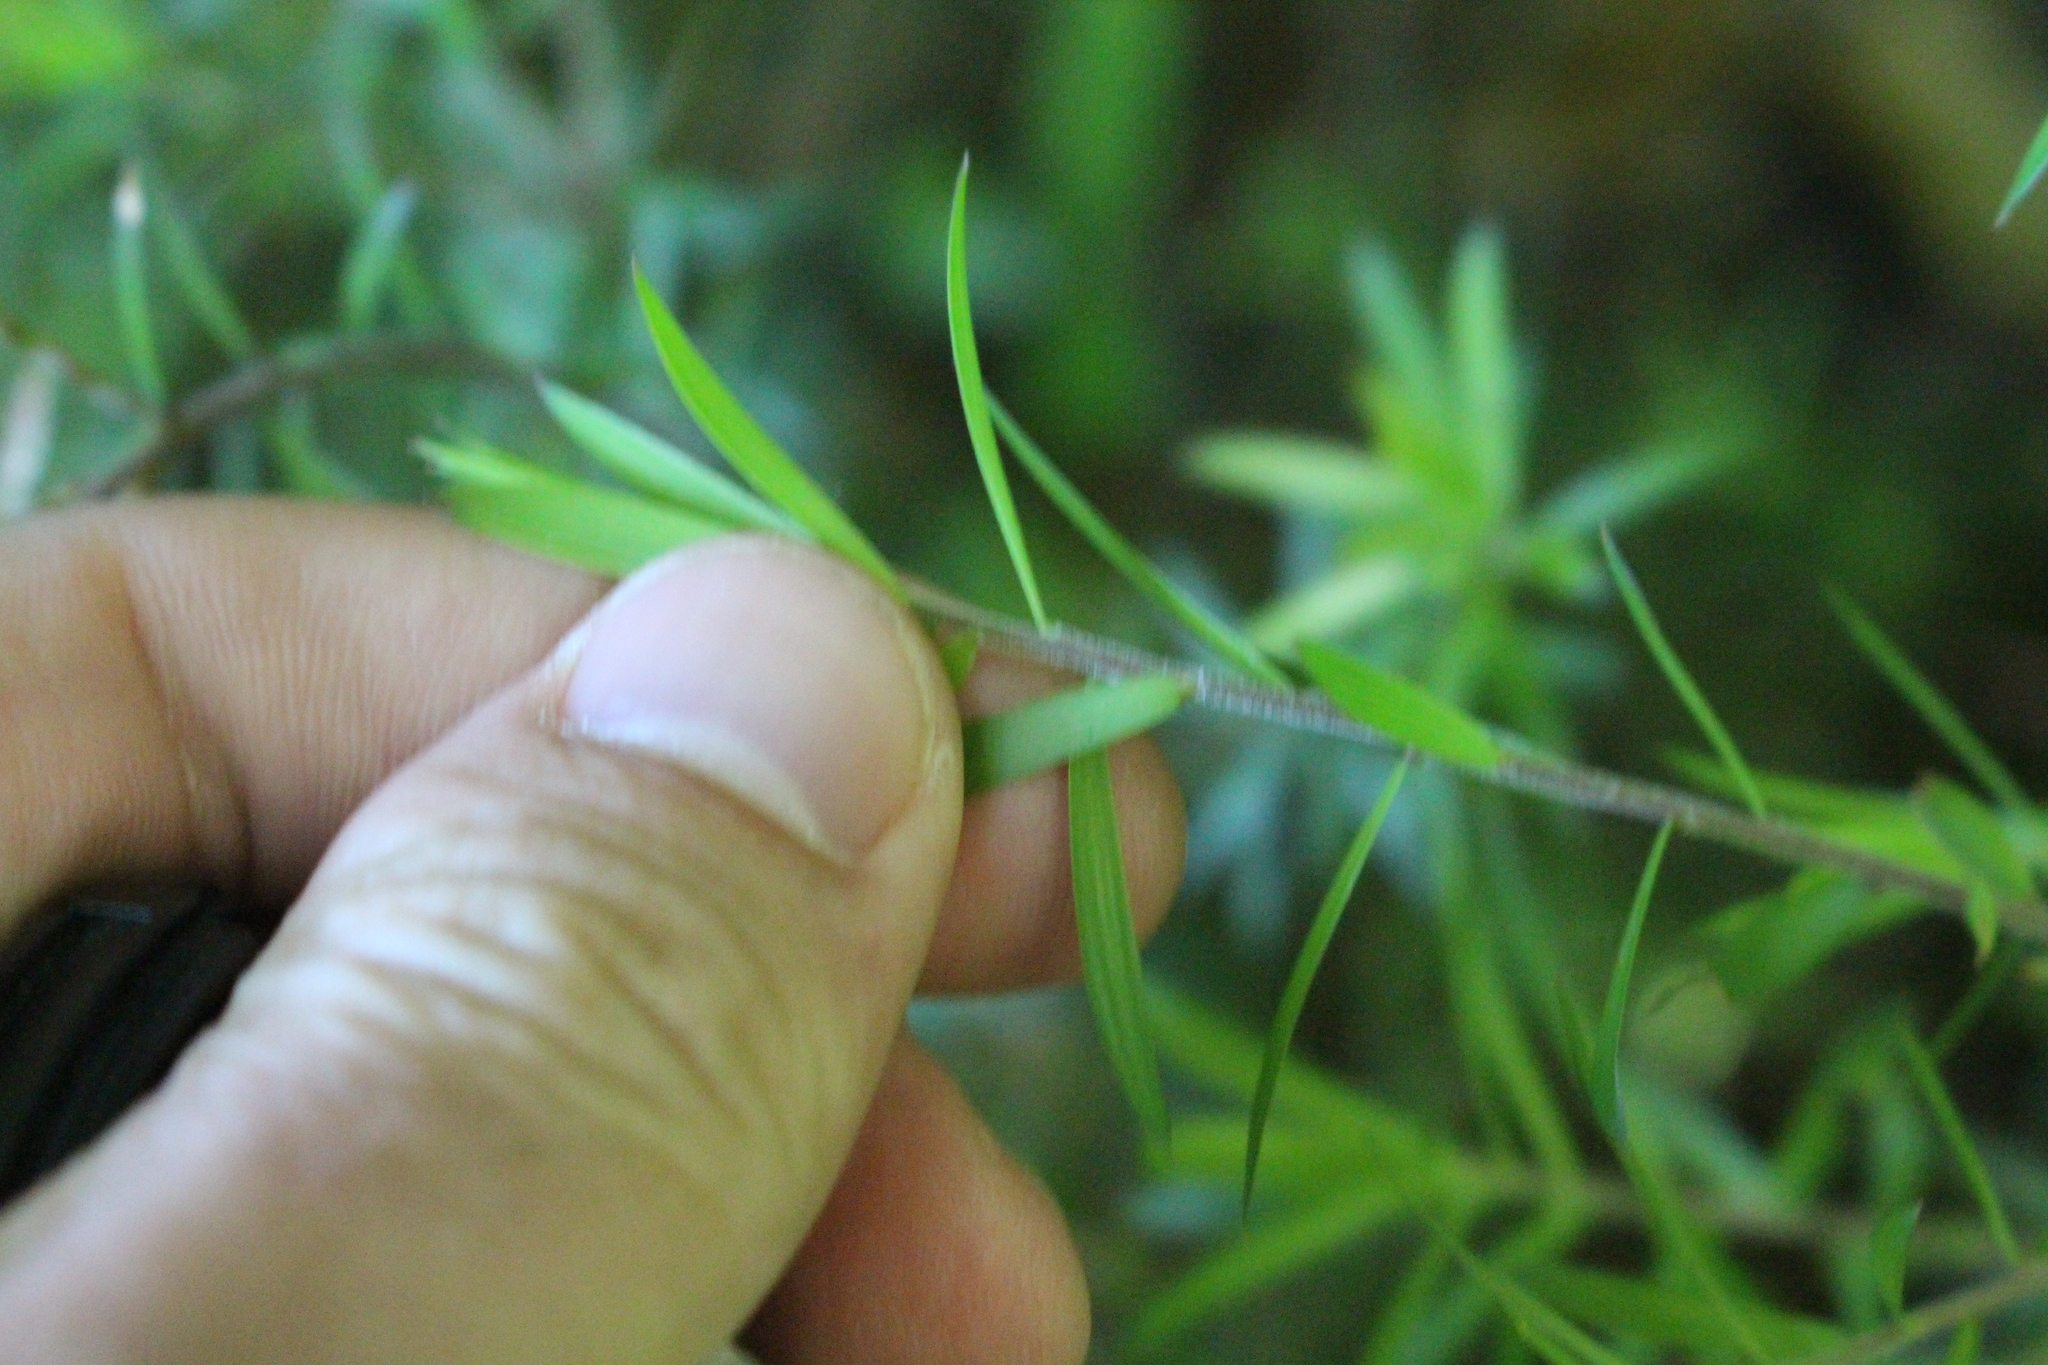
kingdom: Plantae
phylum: Tracheophyta
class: Magnoliopsida
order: Ericales
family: Ericaceae
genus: Leucopogon
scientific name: Leucopogon fasciculatus
